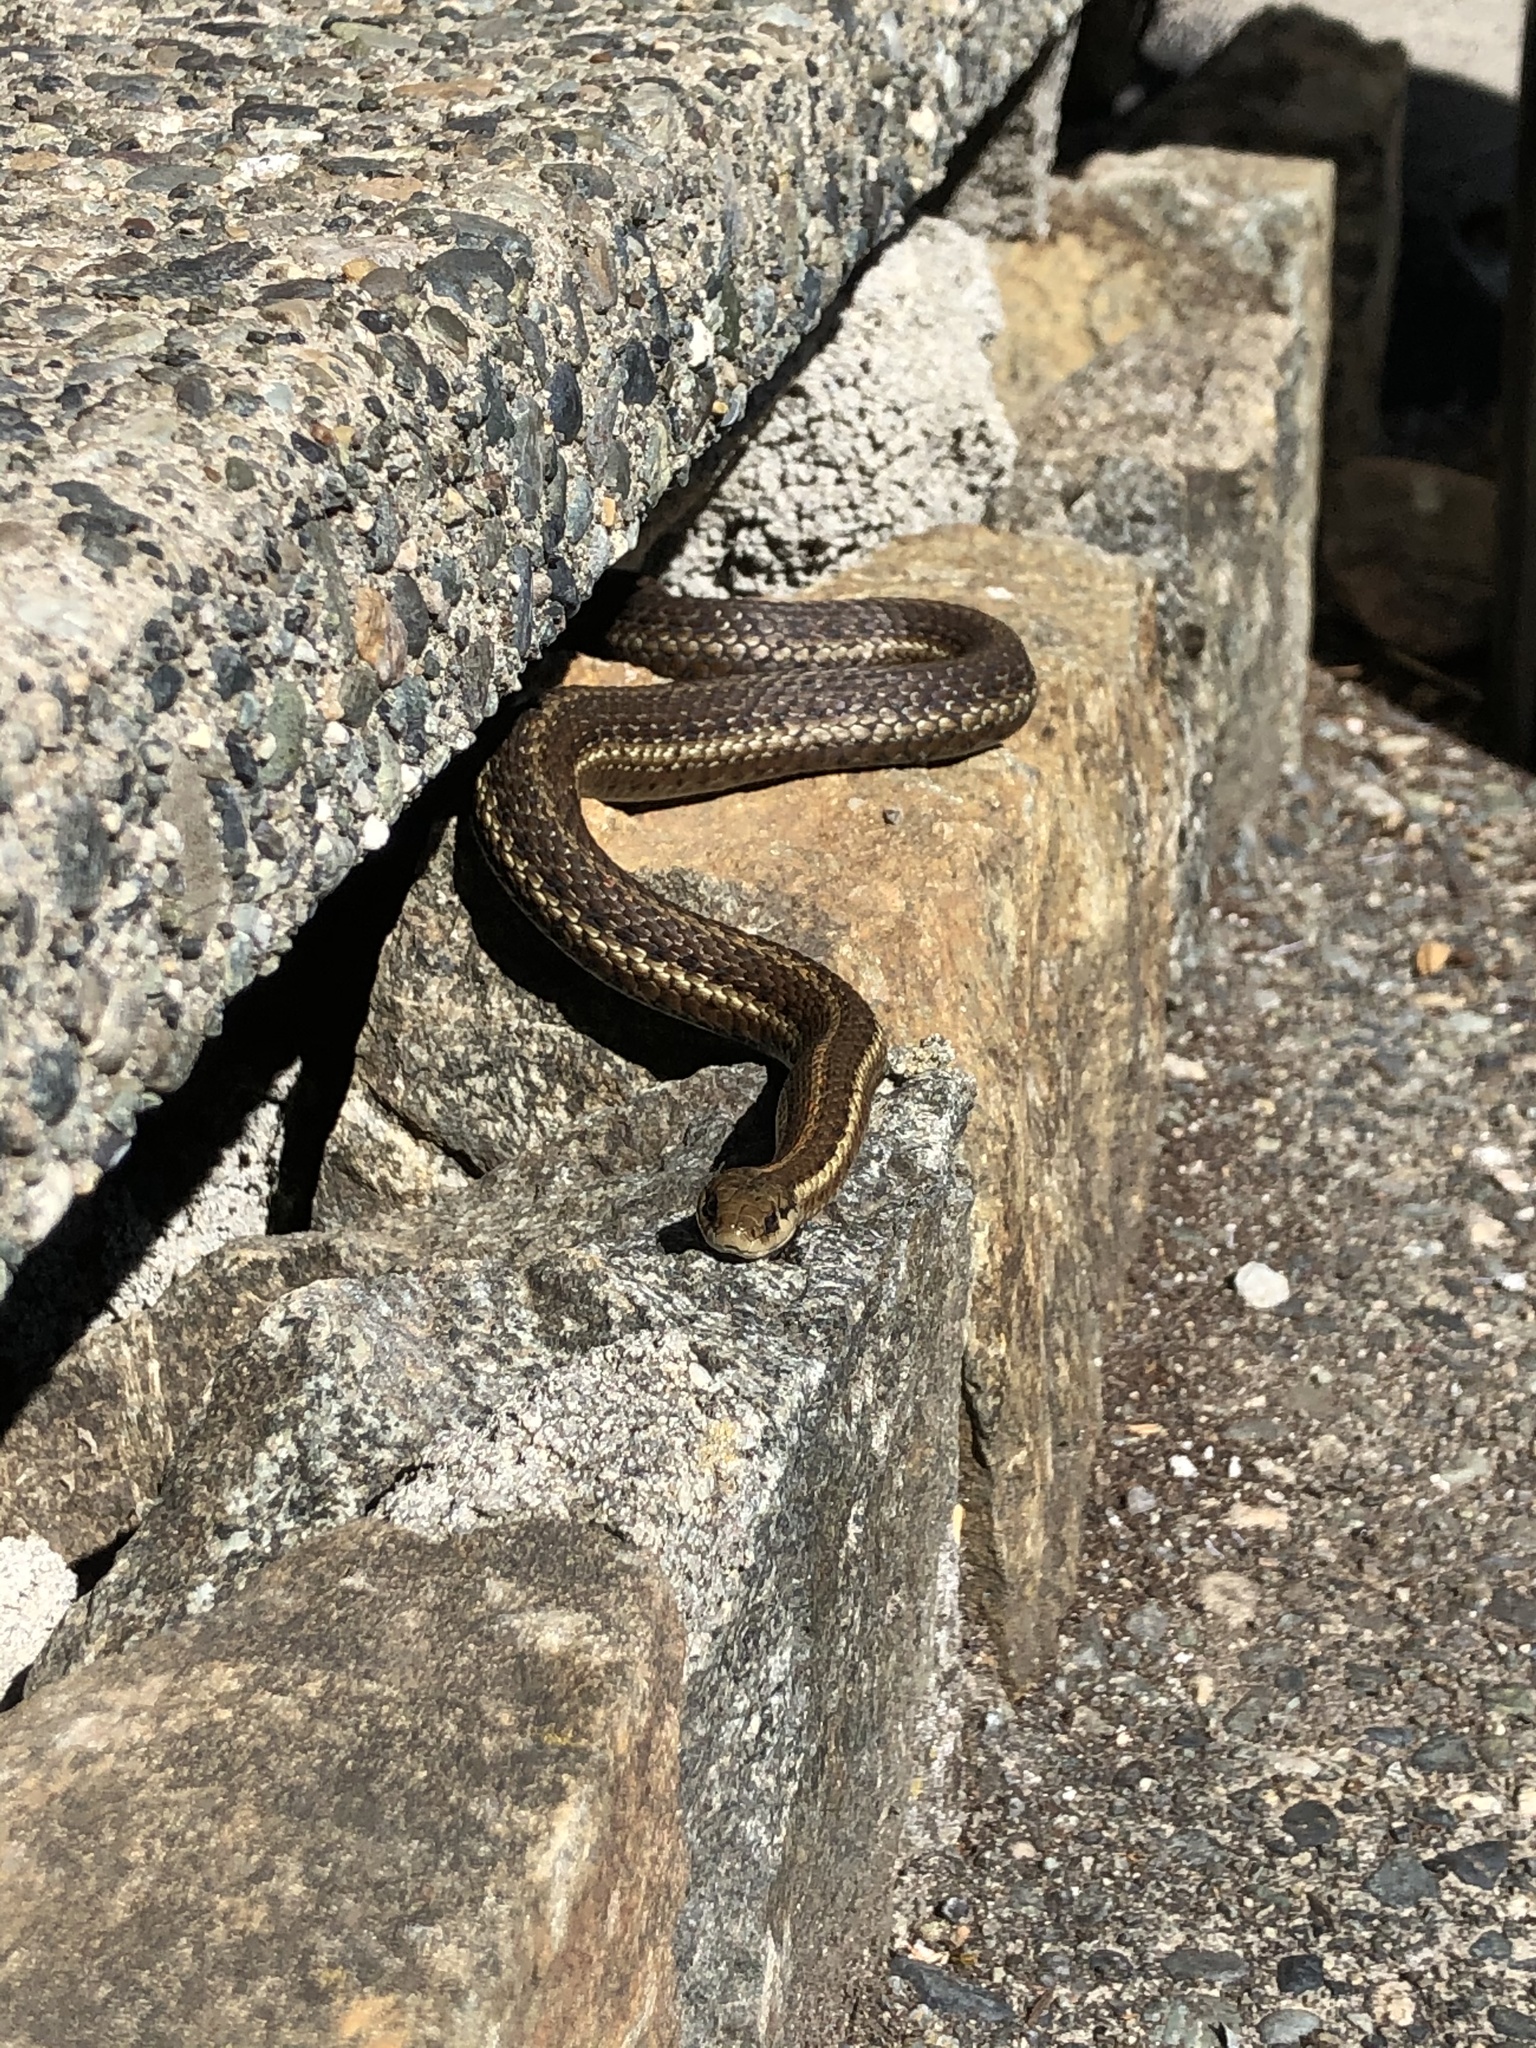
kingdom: Animalia
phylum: Chordata
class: Squamata
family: Colubridae
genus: Thamnophis
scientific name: Thamnophis ordinoides
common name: Northwestern garter snake
